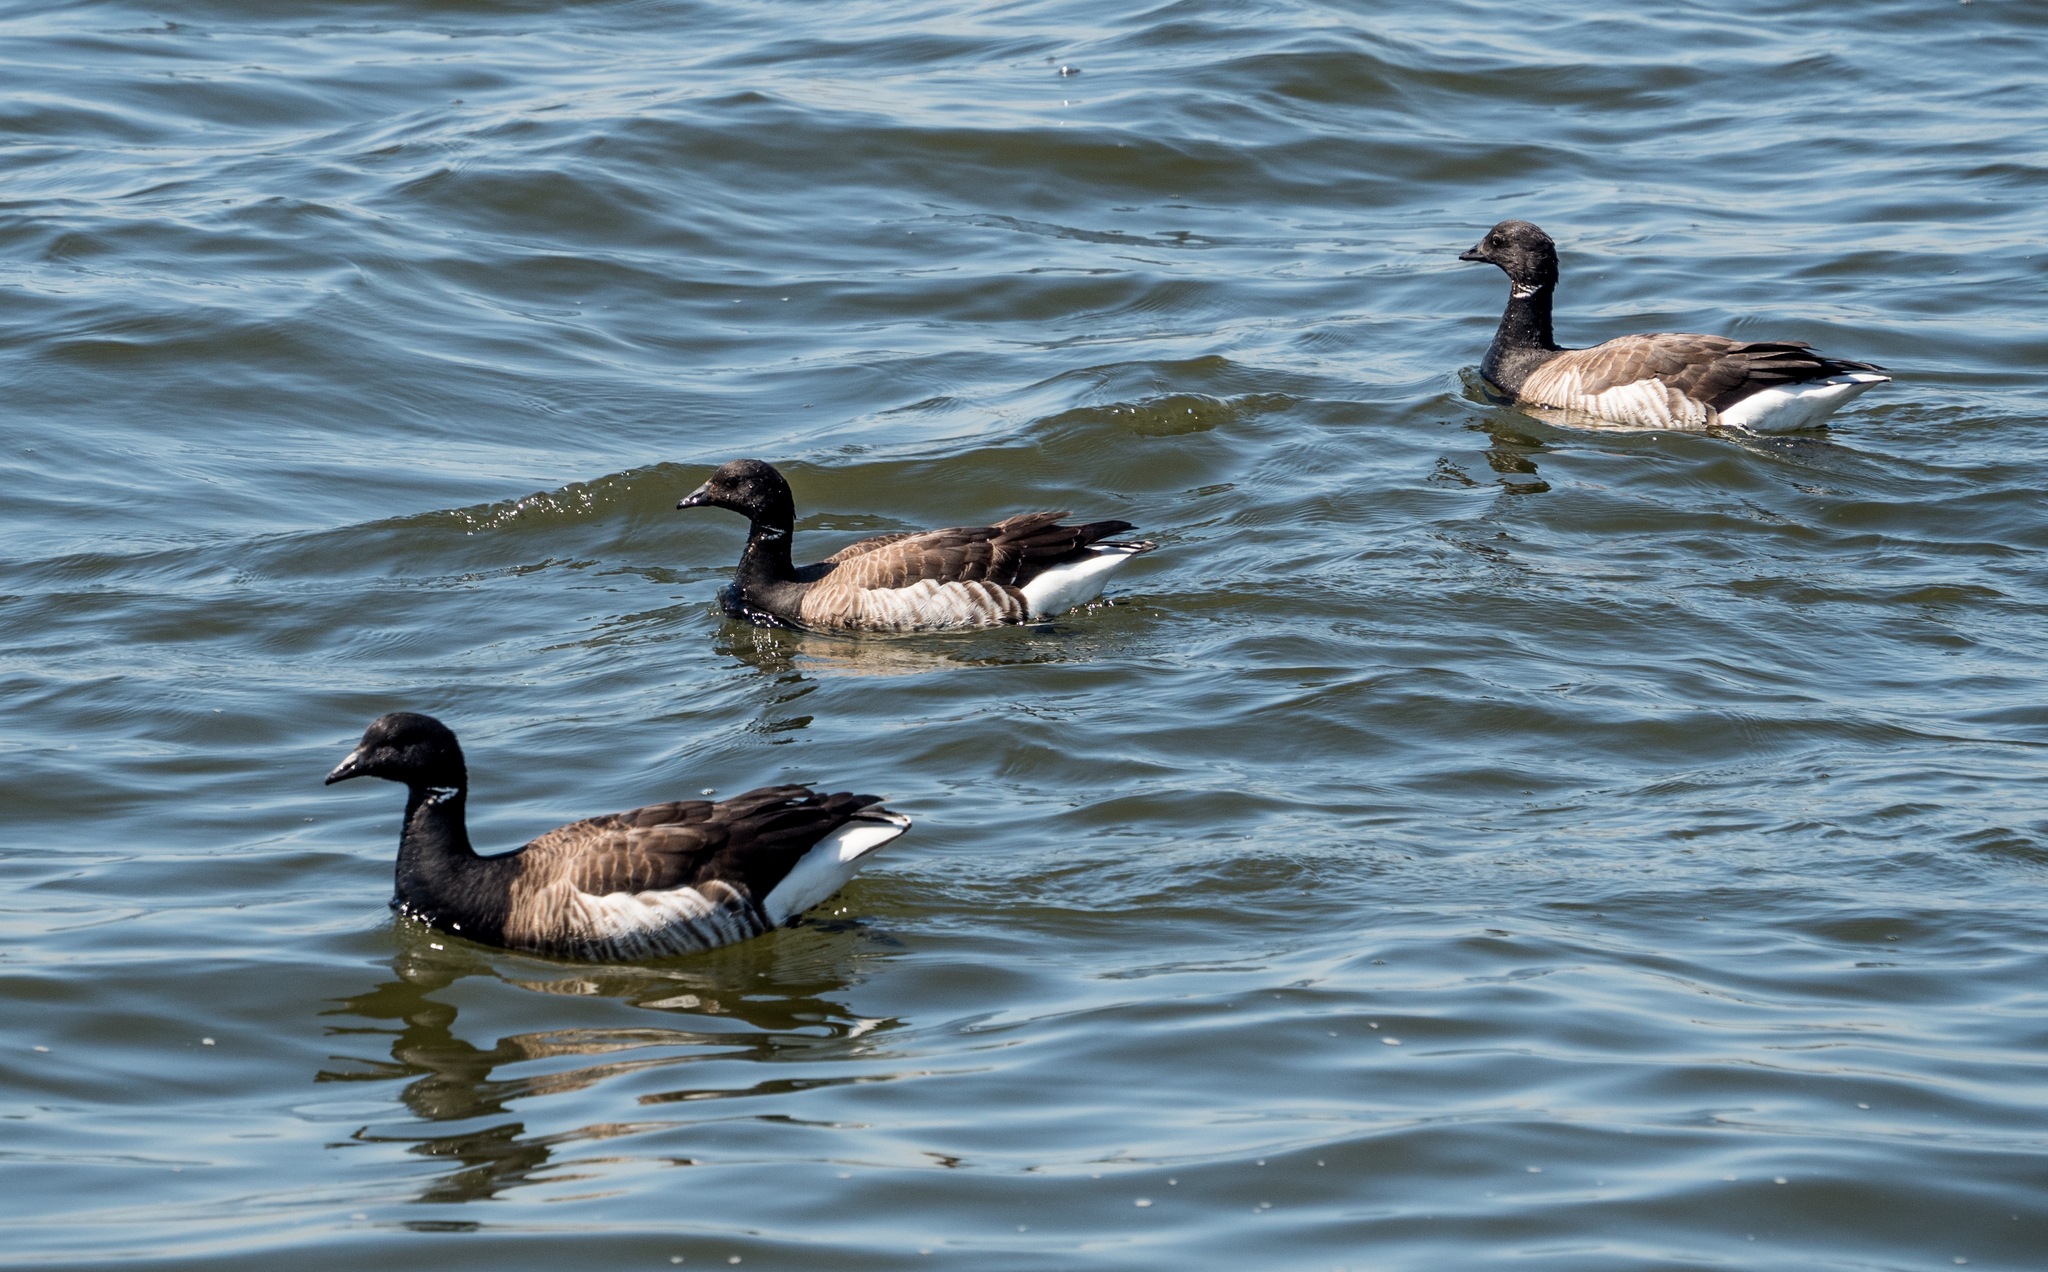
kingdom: Animalia
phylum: Chordata
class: Aves
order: Anseriformes
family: Anatidae
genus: Branta
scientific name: Branta bernicla
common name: Brant goose
